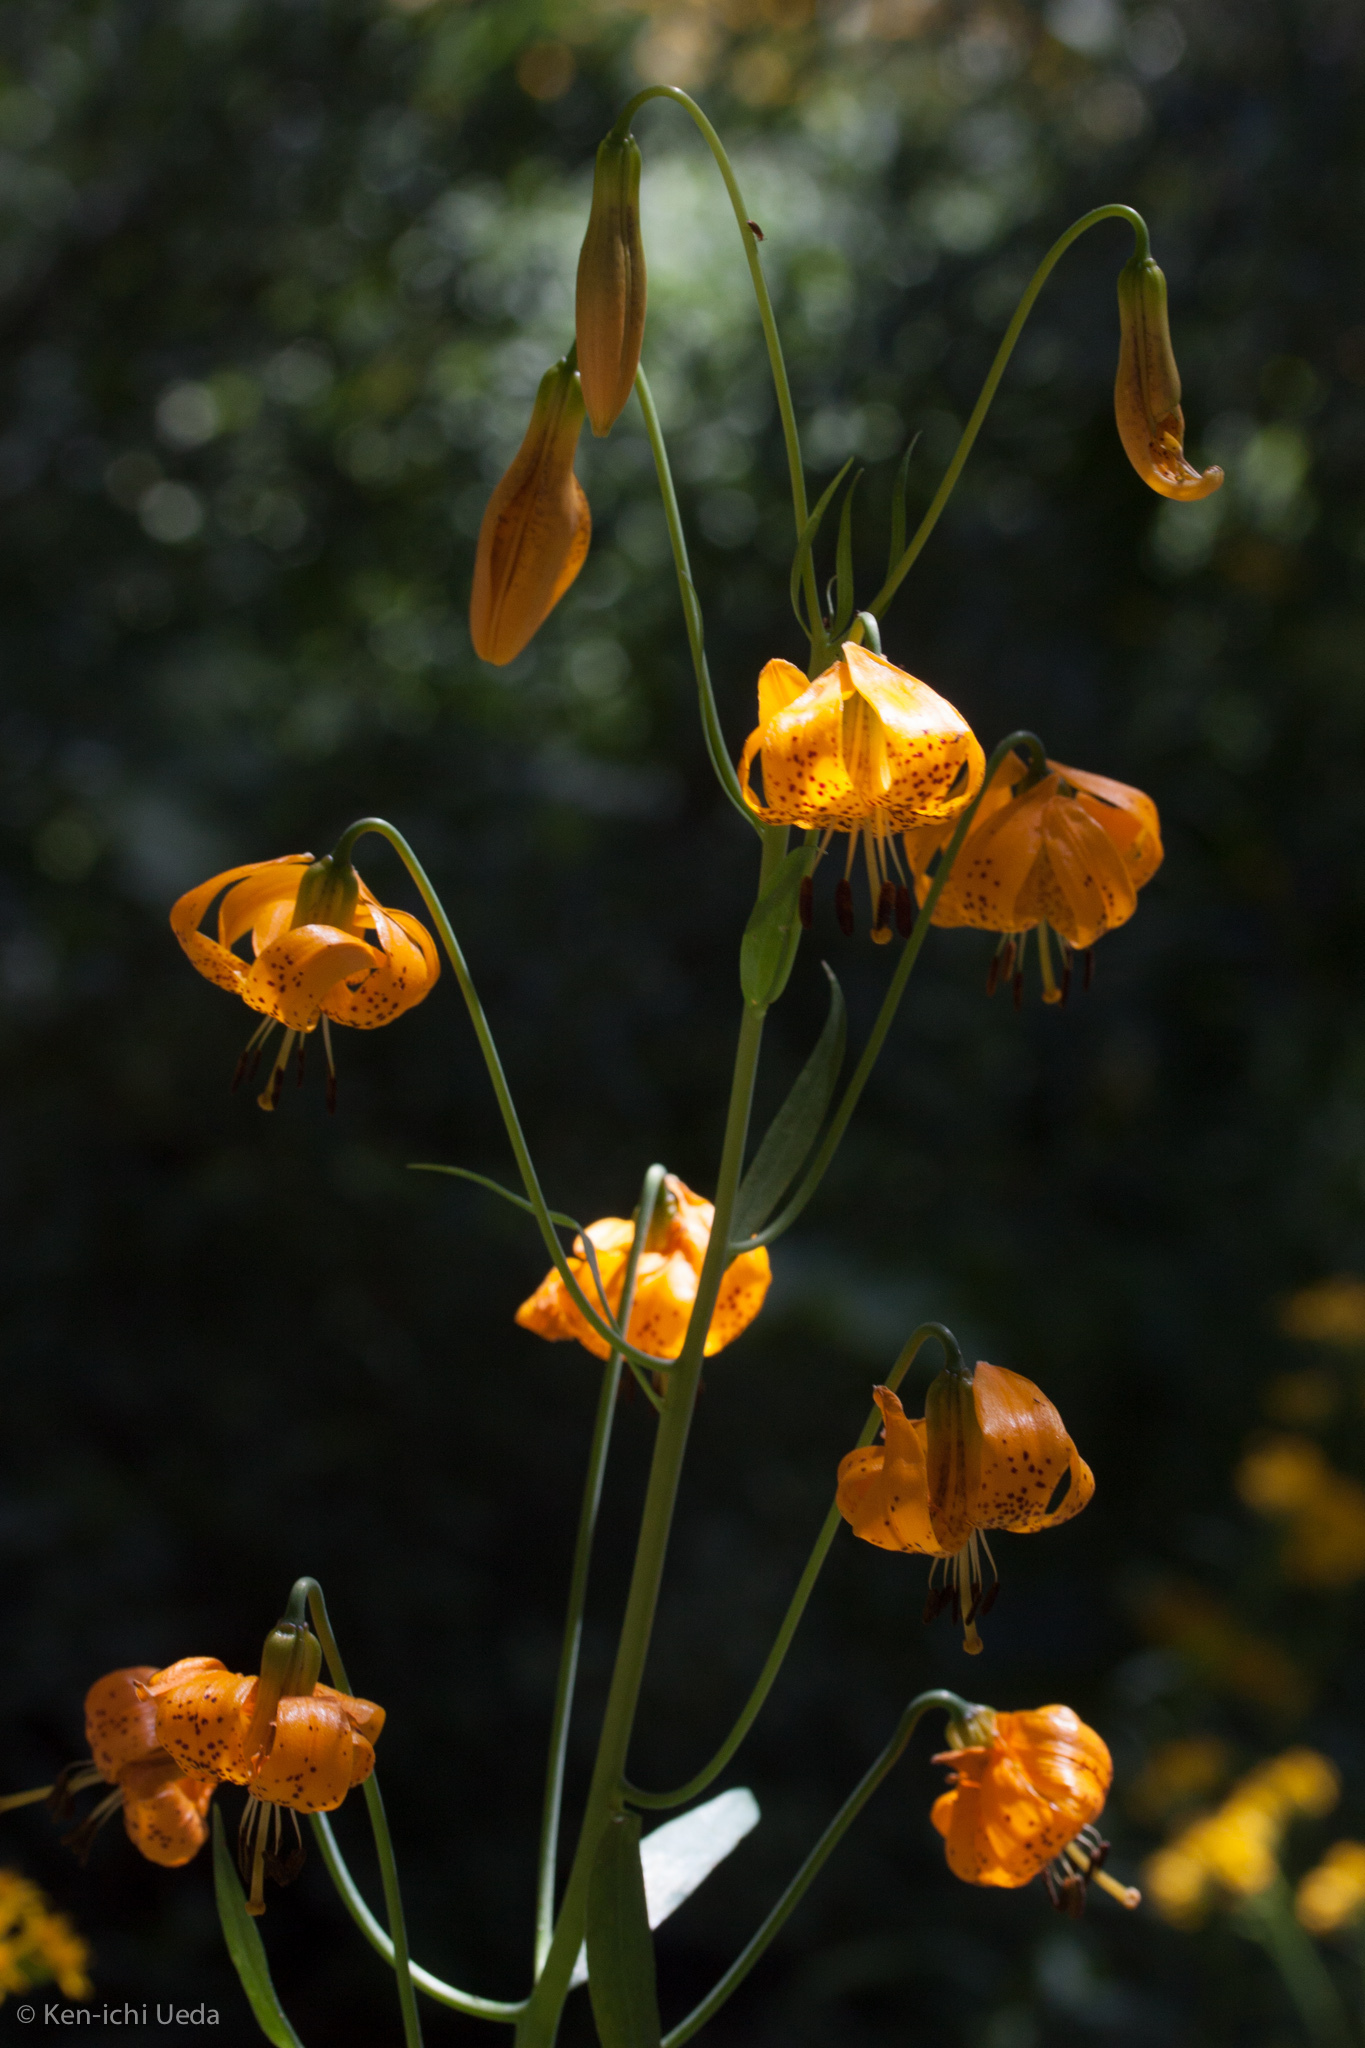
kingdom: Plantae
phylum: Tracheophyta
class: Liliopsida
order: Liliales
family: Liliaceae
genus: Lilium
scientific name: Lilium kelleyanum
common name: Kelley's lily
